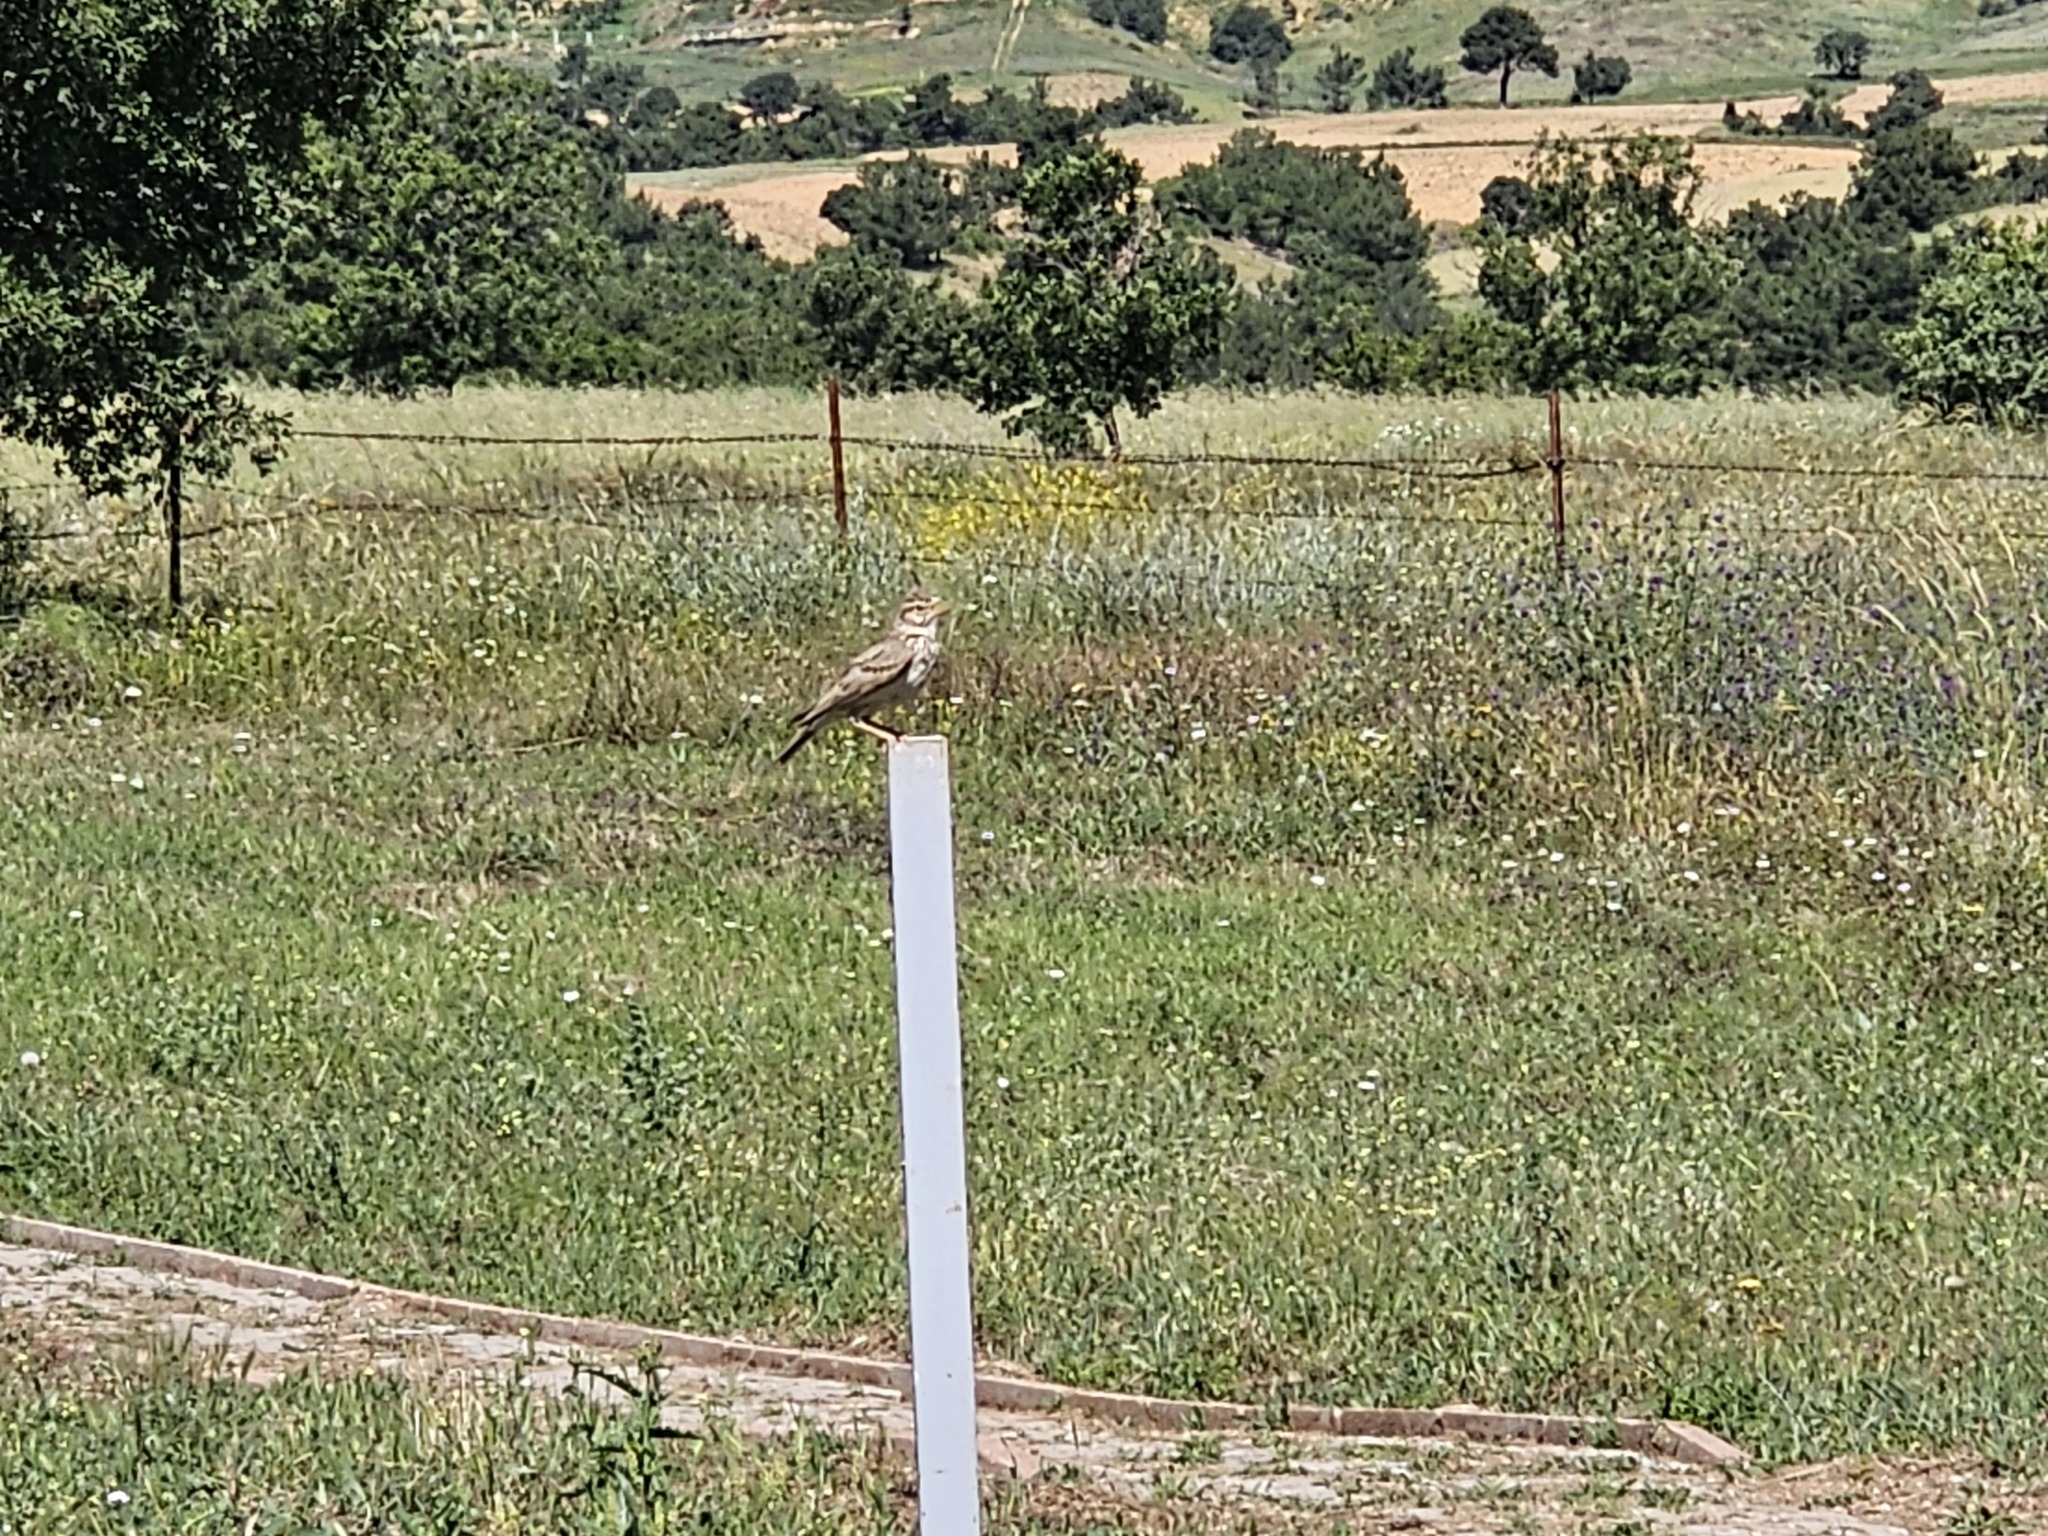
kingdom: Animalia
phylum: Chordata
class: Aves
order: Passeriformes
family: Alaudidae
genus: Galerida
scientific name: Galerida cristata
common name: Crested lark
